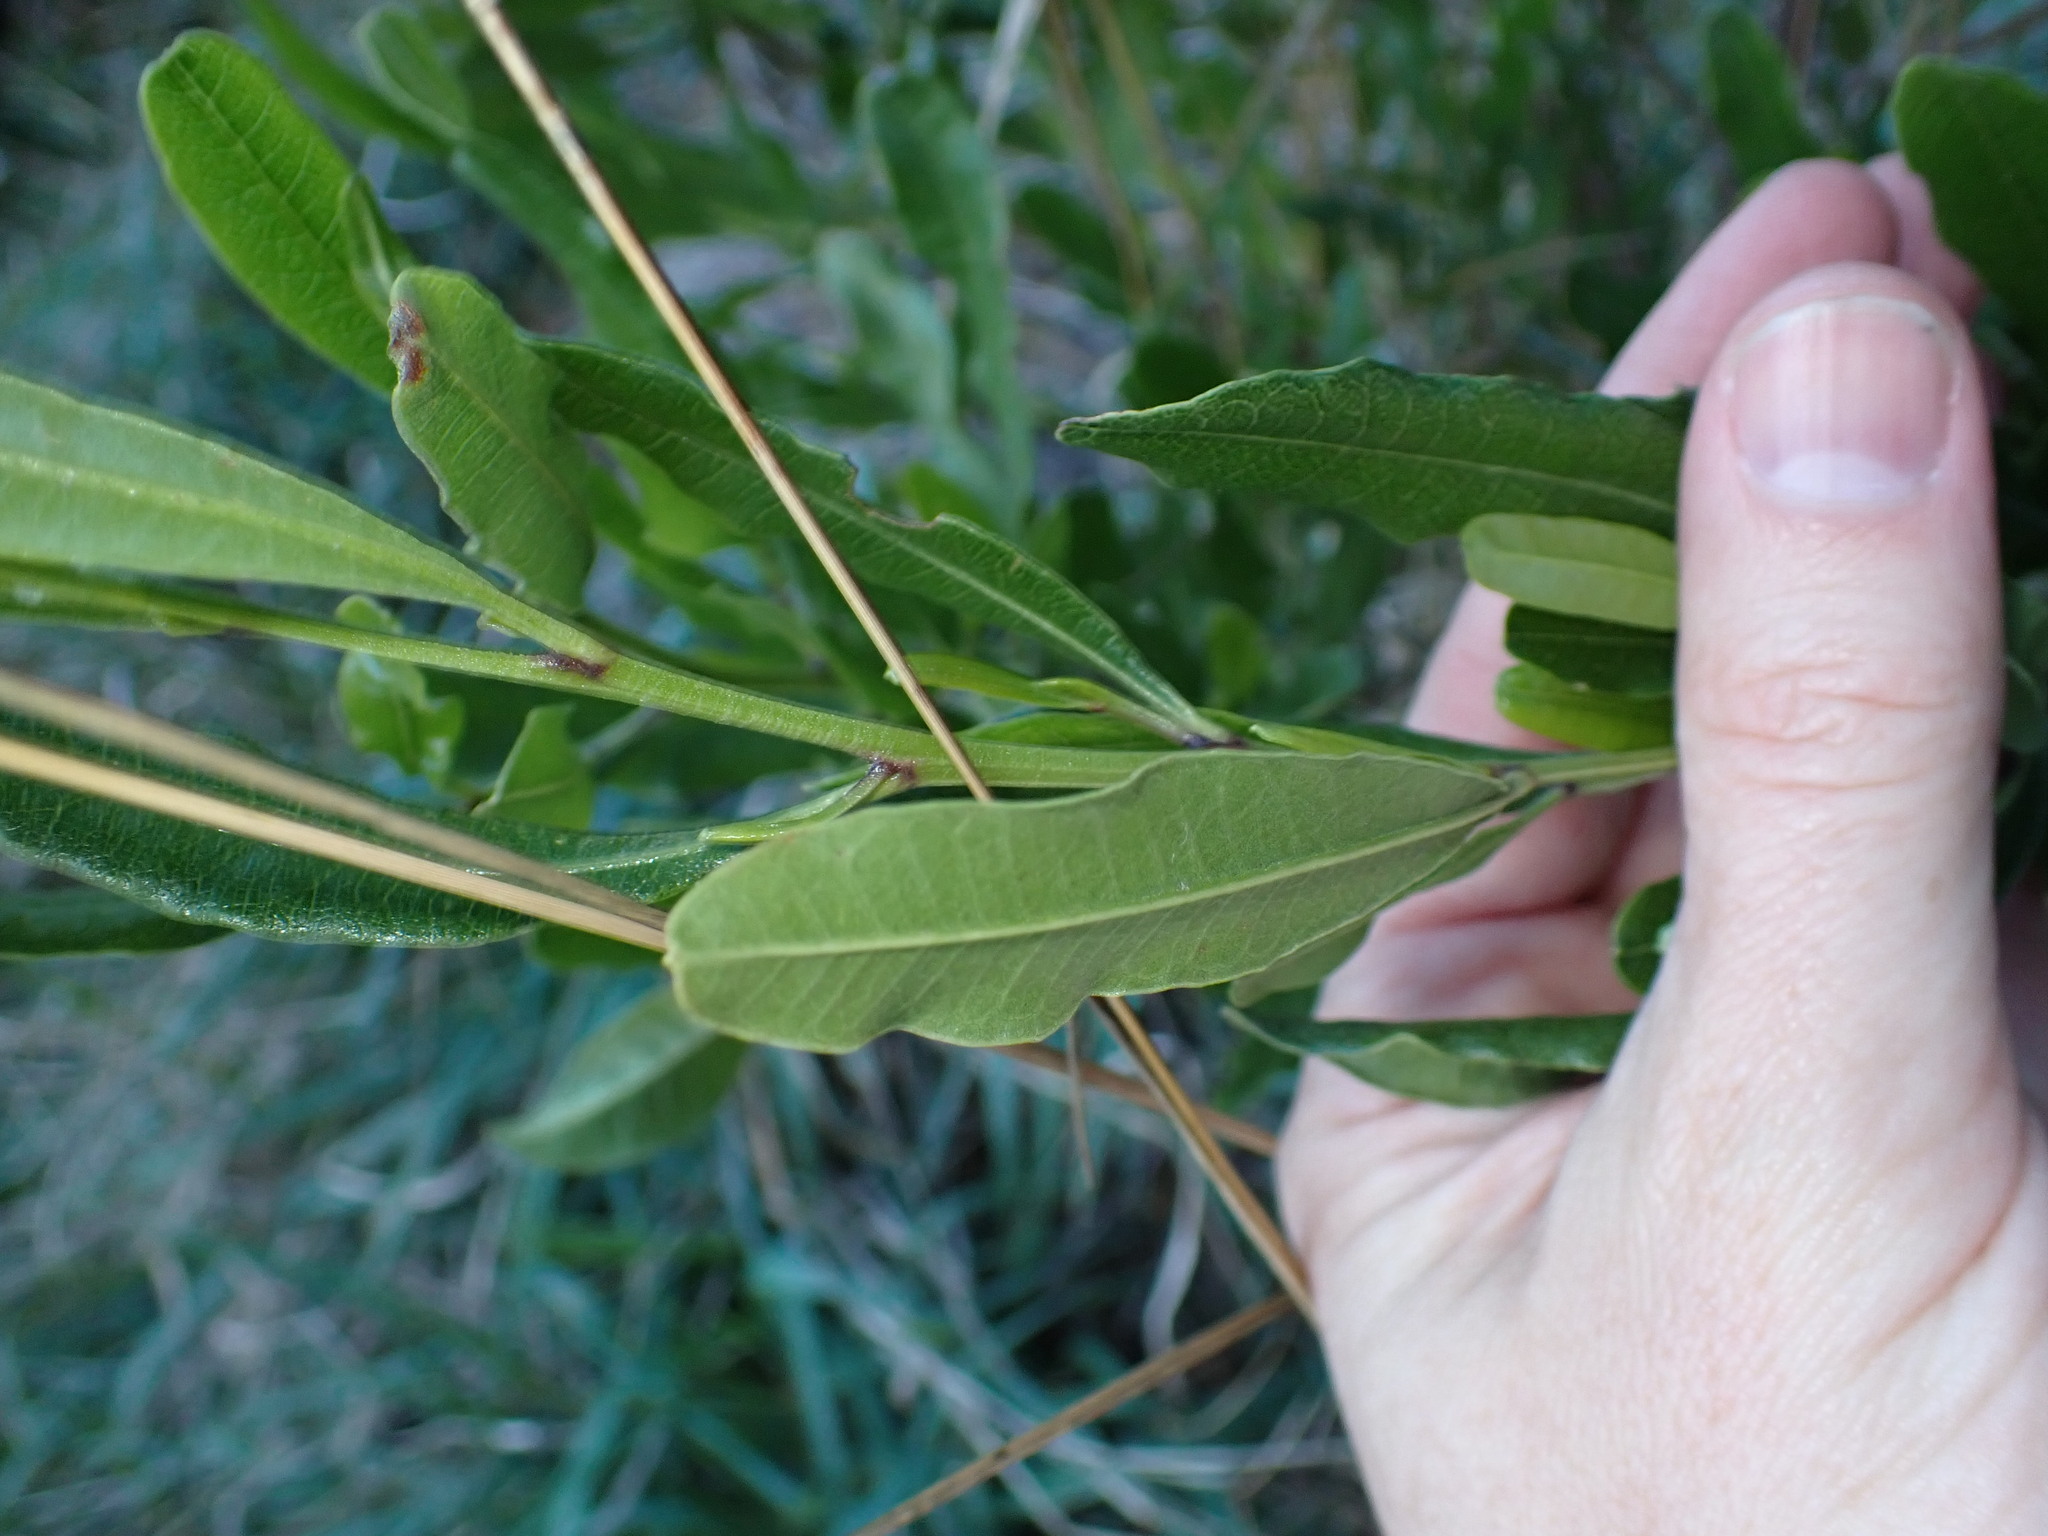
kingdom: Plantae
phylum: Tracheophyta
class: Magnoliopsida
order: Sapindales
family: Sapindaceae
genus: Dodonaea
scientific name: Dodonaea viscosa
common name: Hopbush
